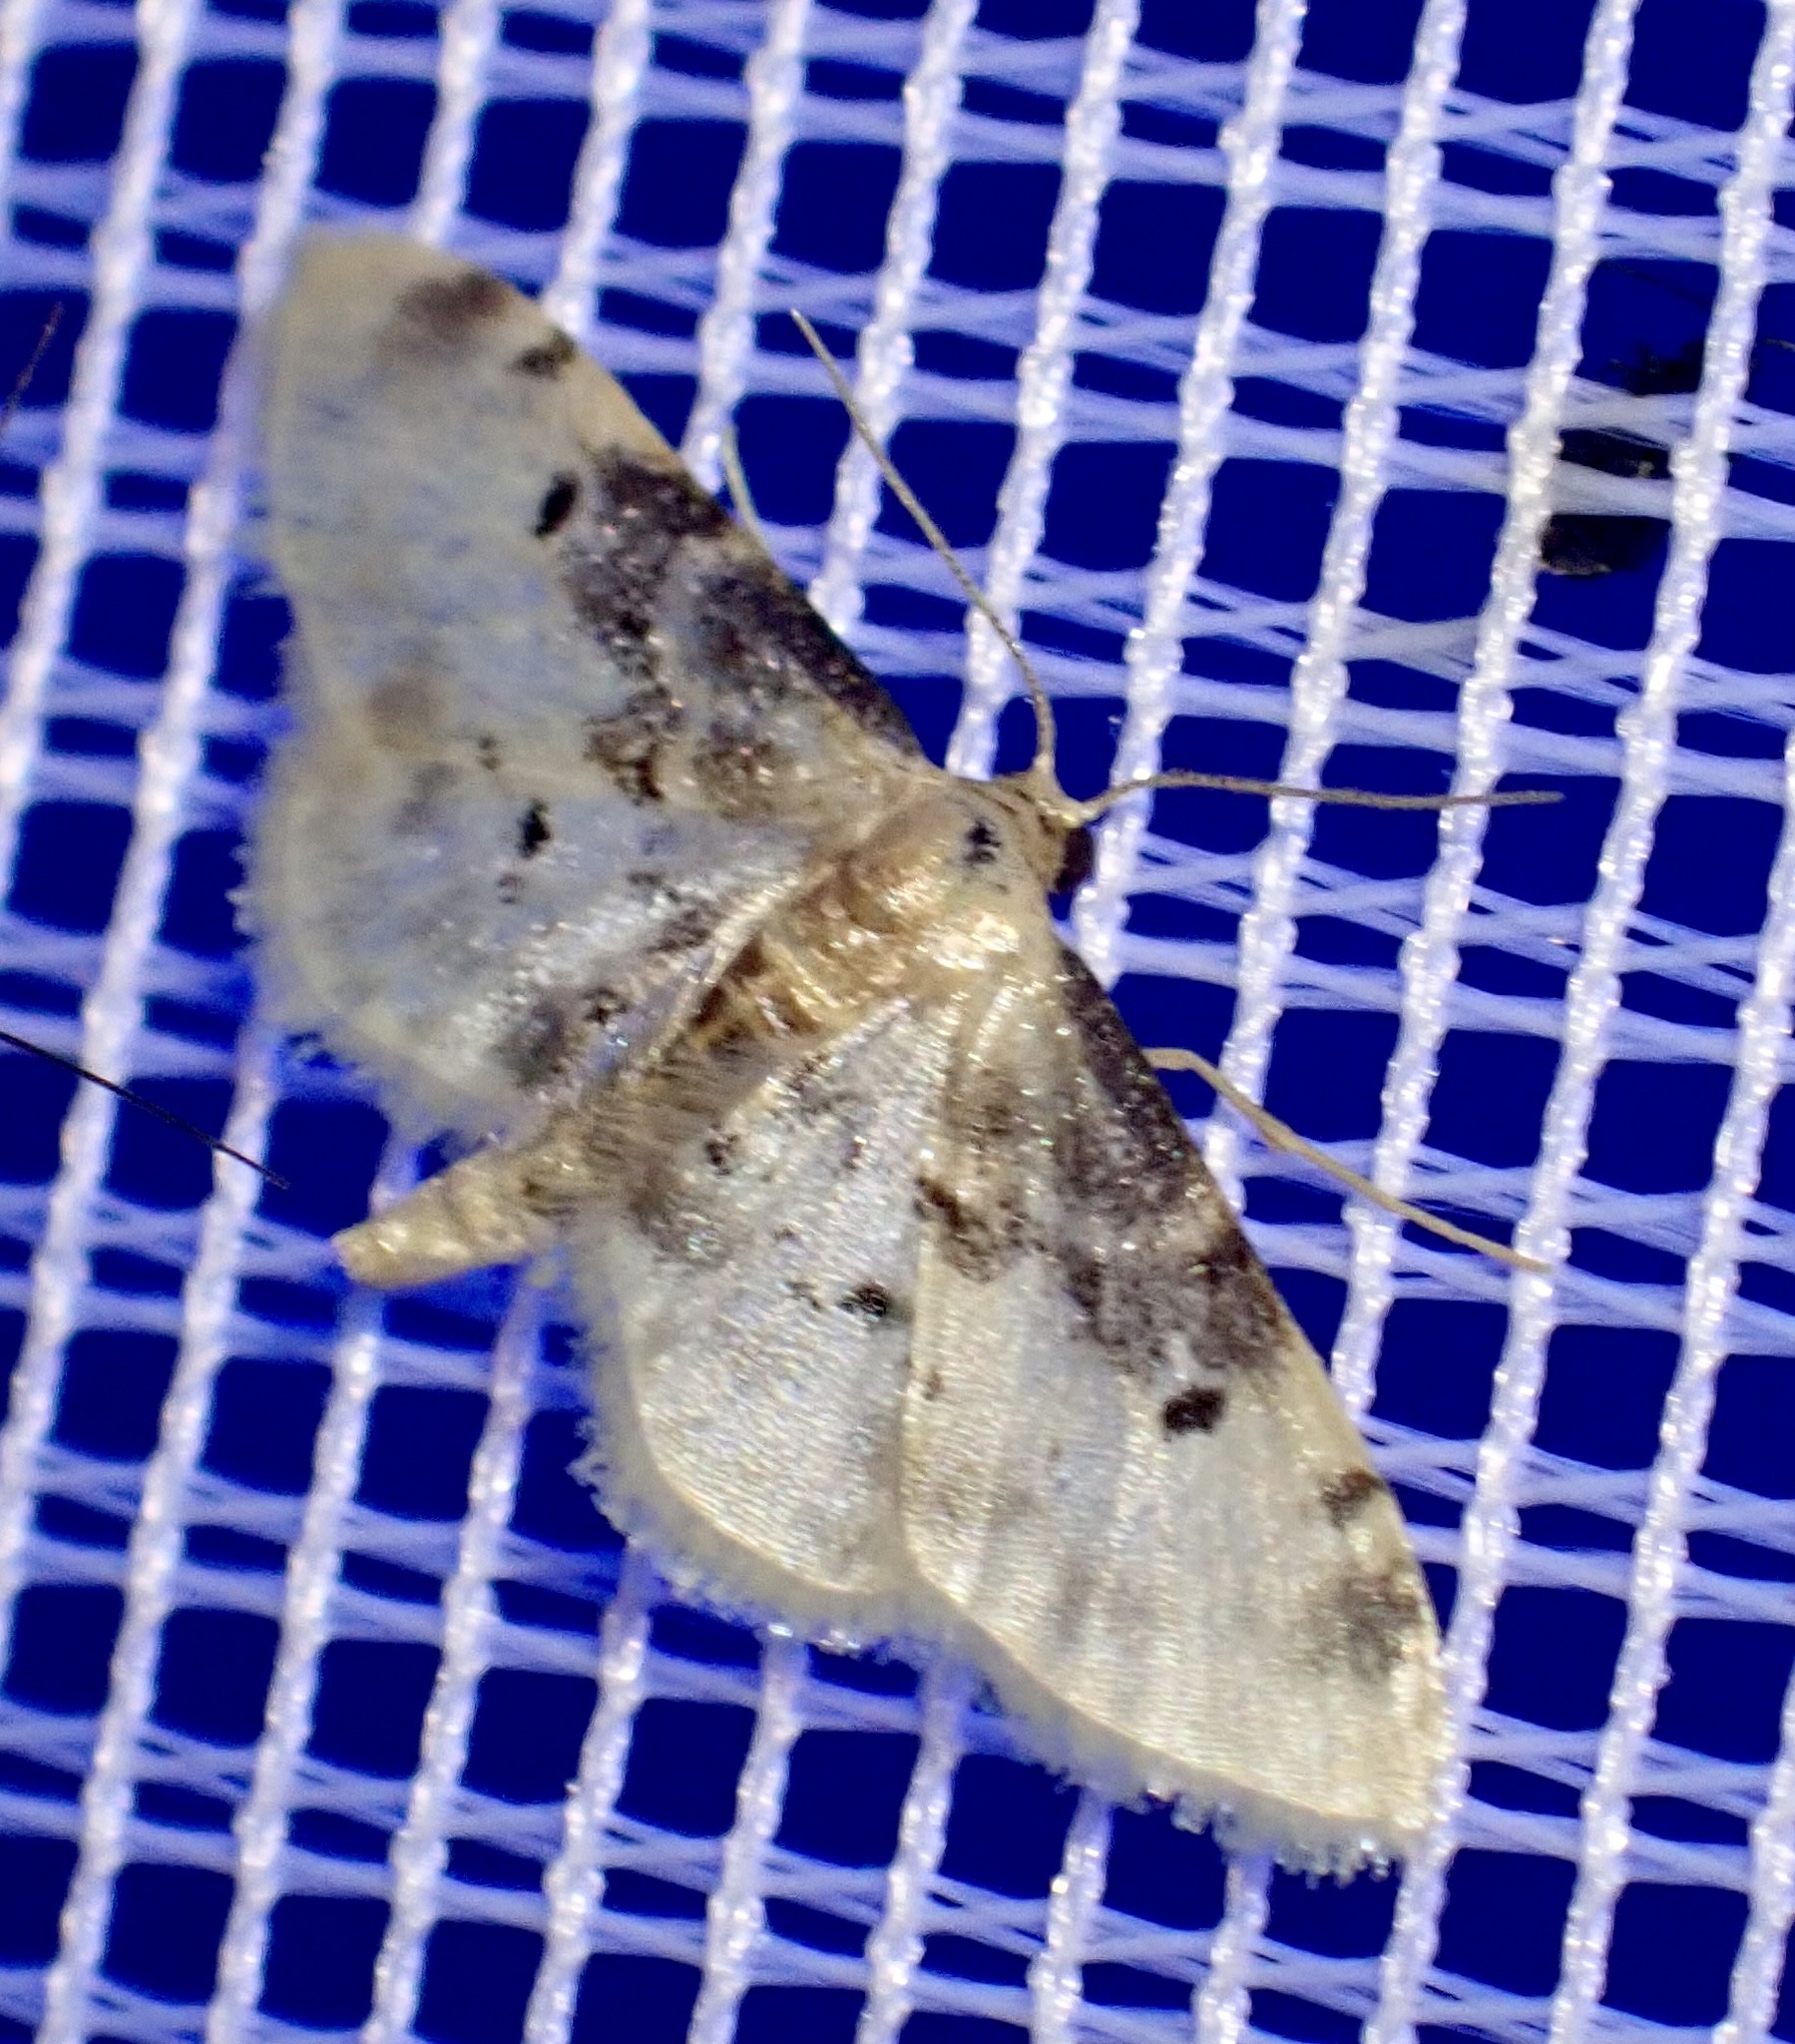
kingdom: Animalia
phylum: Arthropoda
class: Insecta
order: Lepidoptera
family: Geometridae
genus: Idaea
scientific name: Idaea filicata
